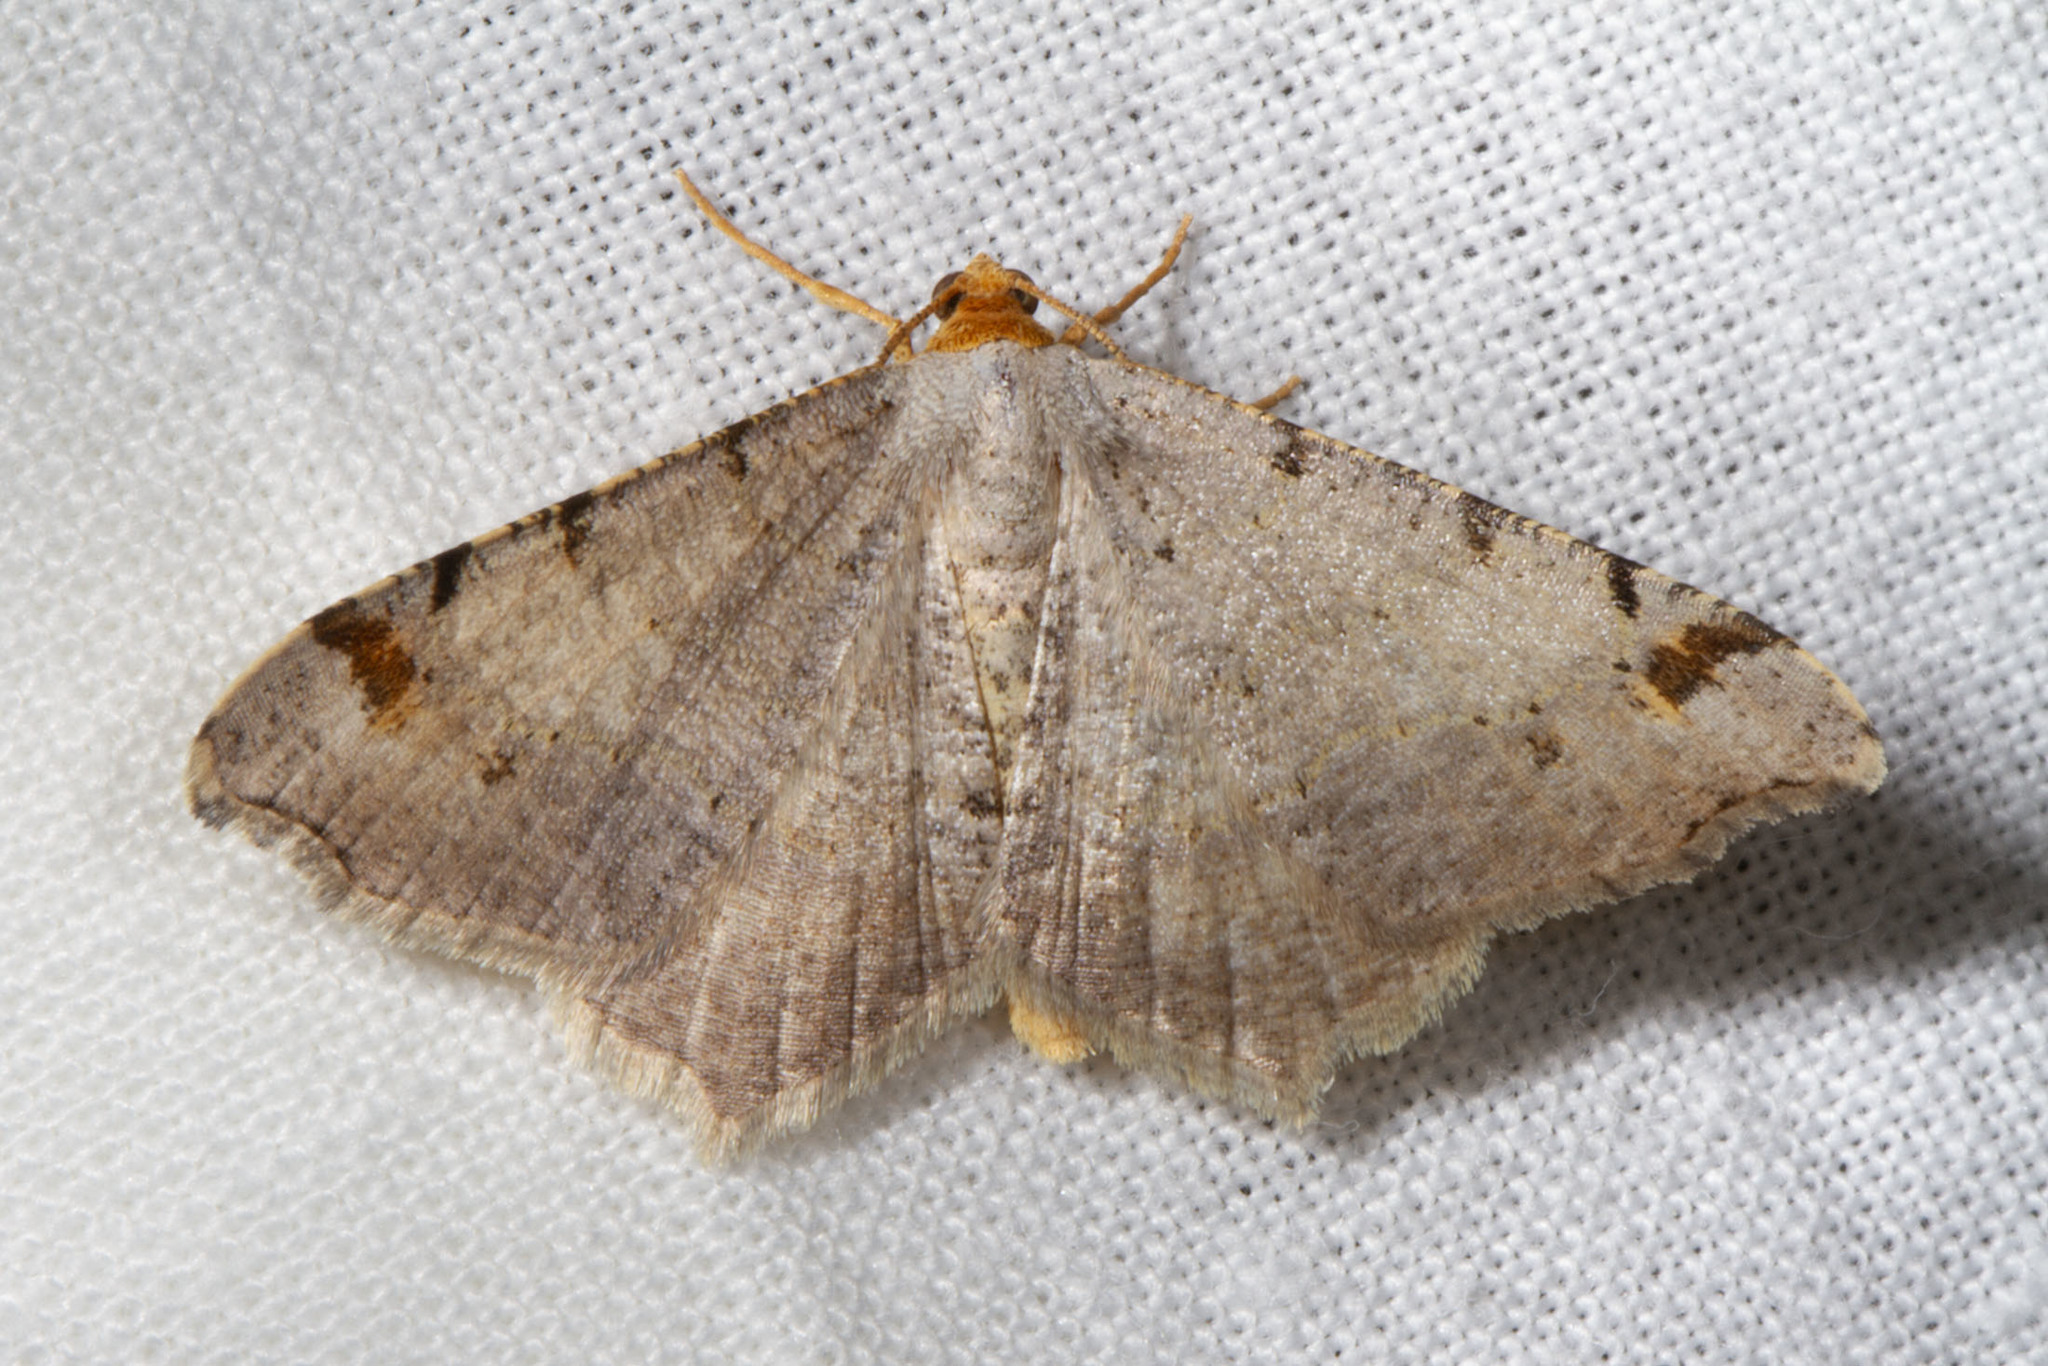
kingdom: Animalia
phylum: Arthropoda
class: Insecta
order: Lepidoptera
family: Geometridae
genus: Macaria
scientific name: Macaria bisignata
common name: Red-headed inchworm
